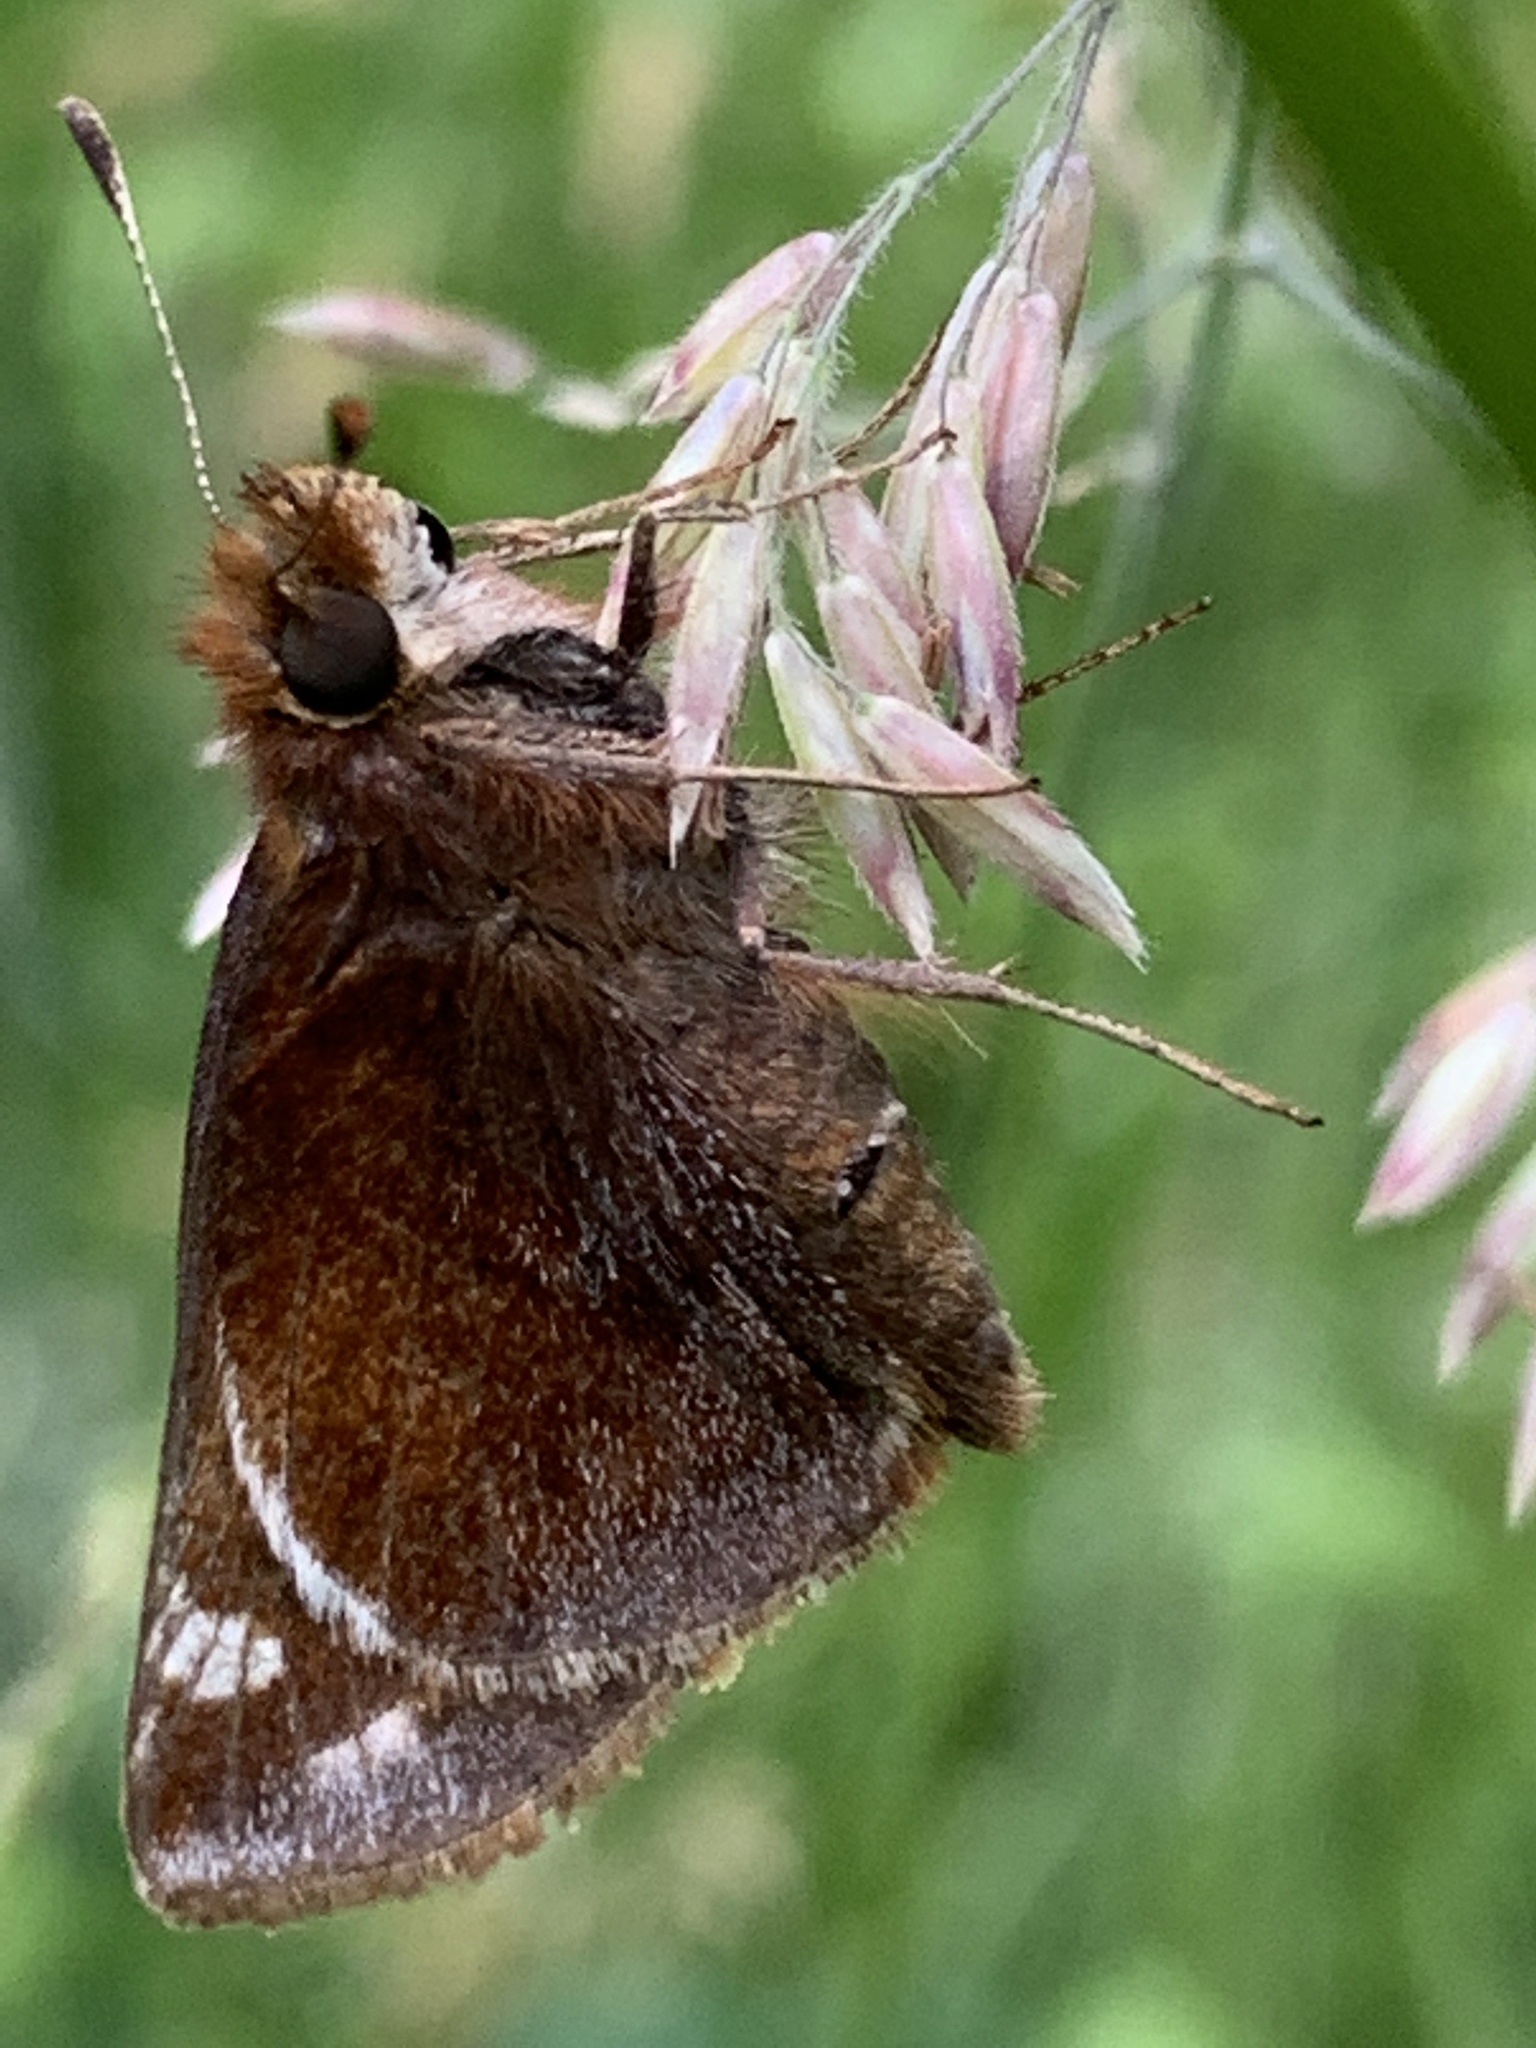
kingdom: Animalia
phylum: Arthropoda
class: Insecta
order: Lepidoptera
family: Hesperiidae
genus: Lon
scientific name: Lon zabulon
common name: Zabulon skipper
